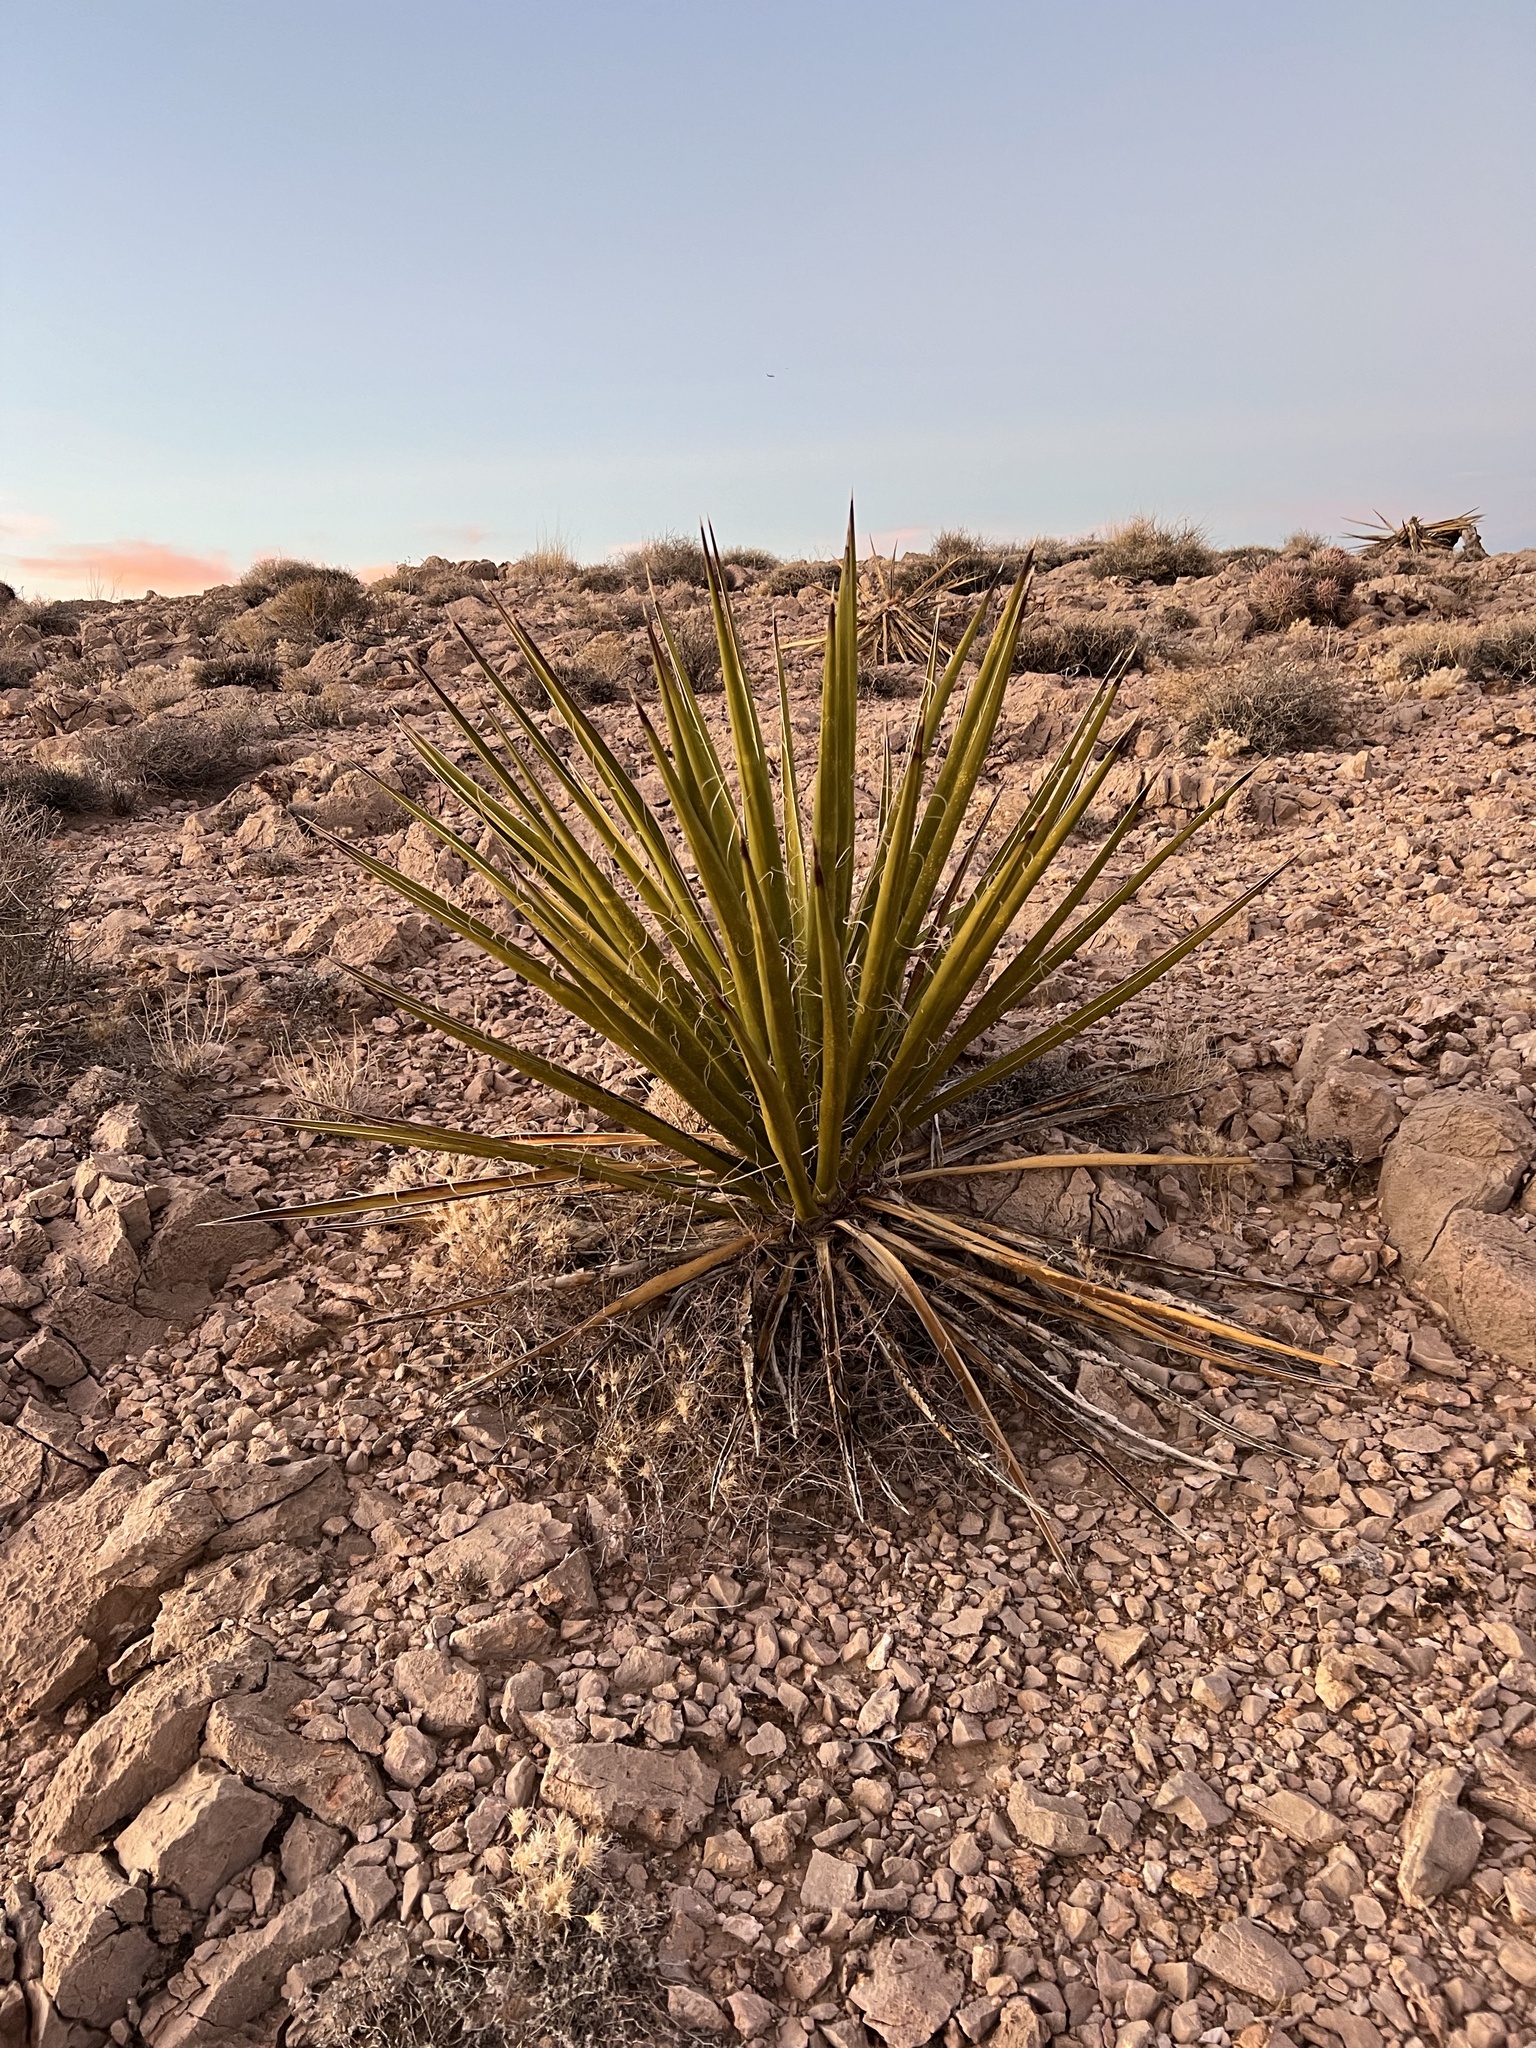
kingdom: Plantae
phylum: Tracheophyta
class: Liliopsida
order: Asparagales
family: Asparagaceae
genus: Yucca
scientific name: Yucca schidigera
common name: Mojave yucca
